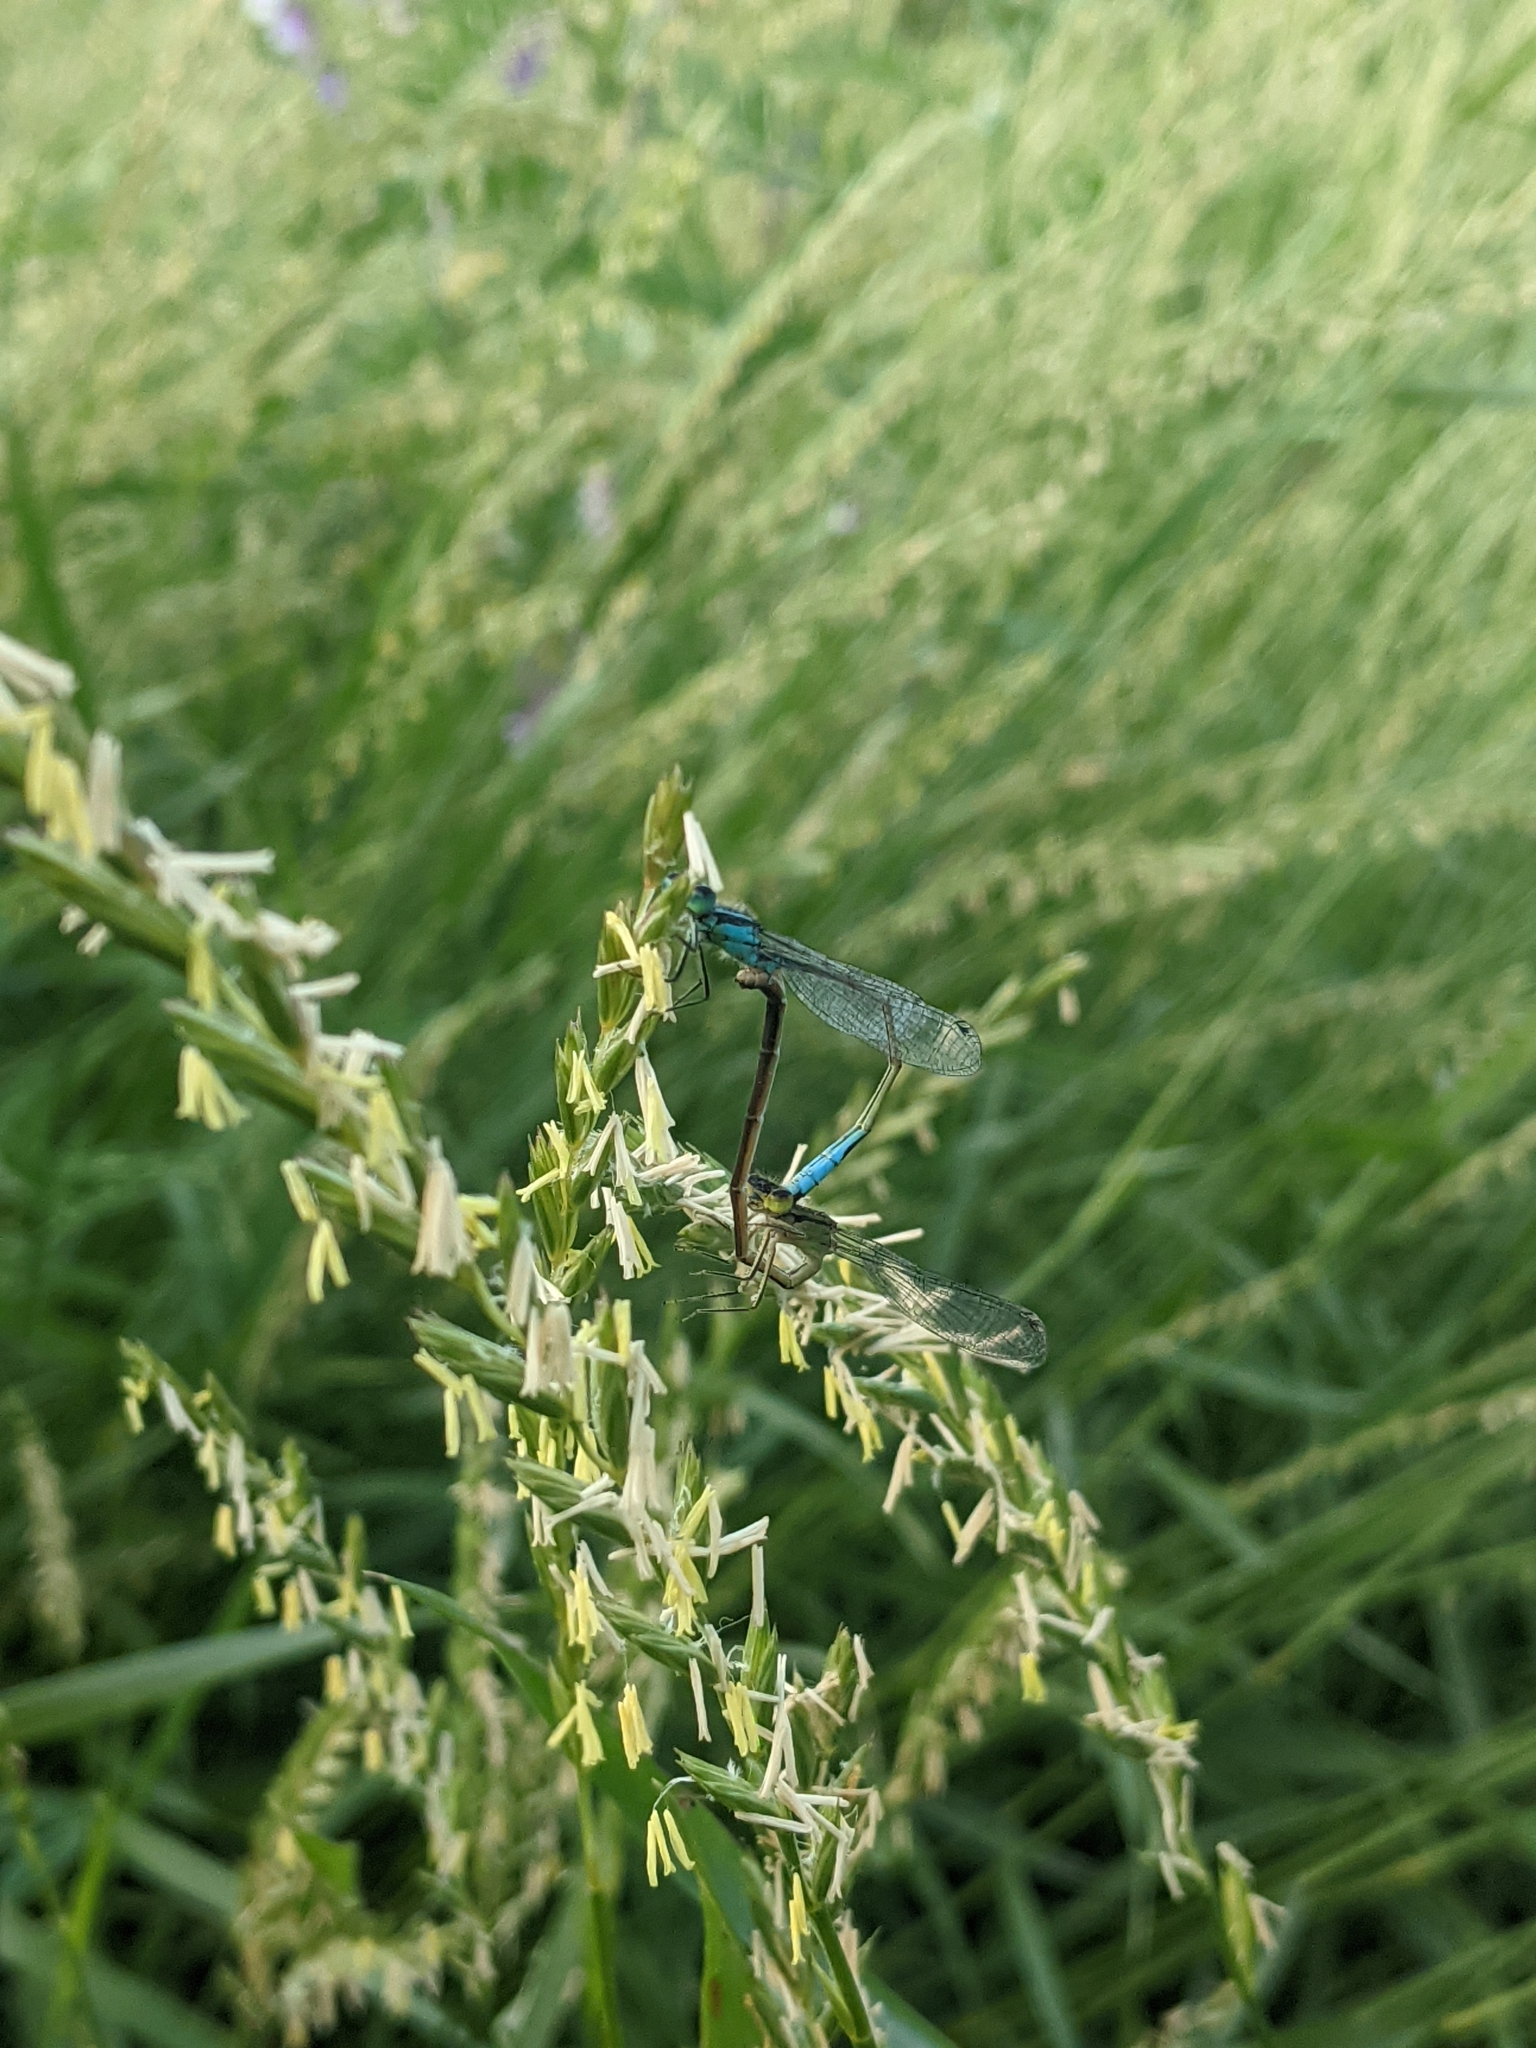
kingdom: Animalia
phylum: Arthropoda
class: Insecta
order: Odonata
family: Coenagrionidae
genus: Ischnura
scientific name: Ischnura elegans
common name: Blue-tailed damselfly
